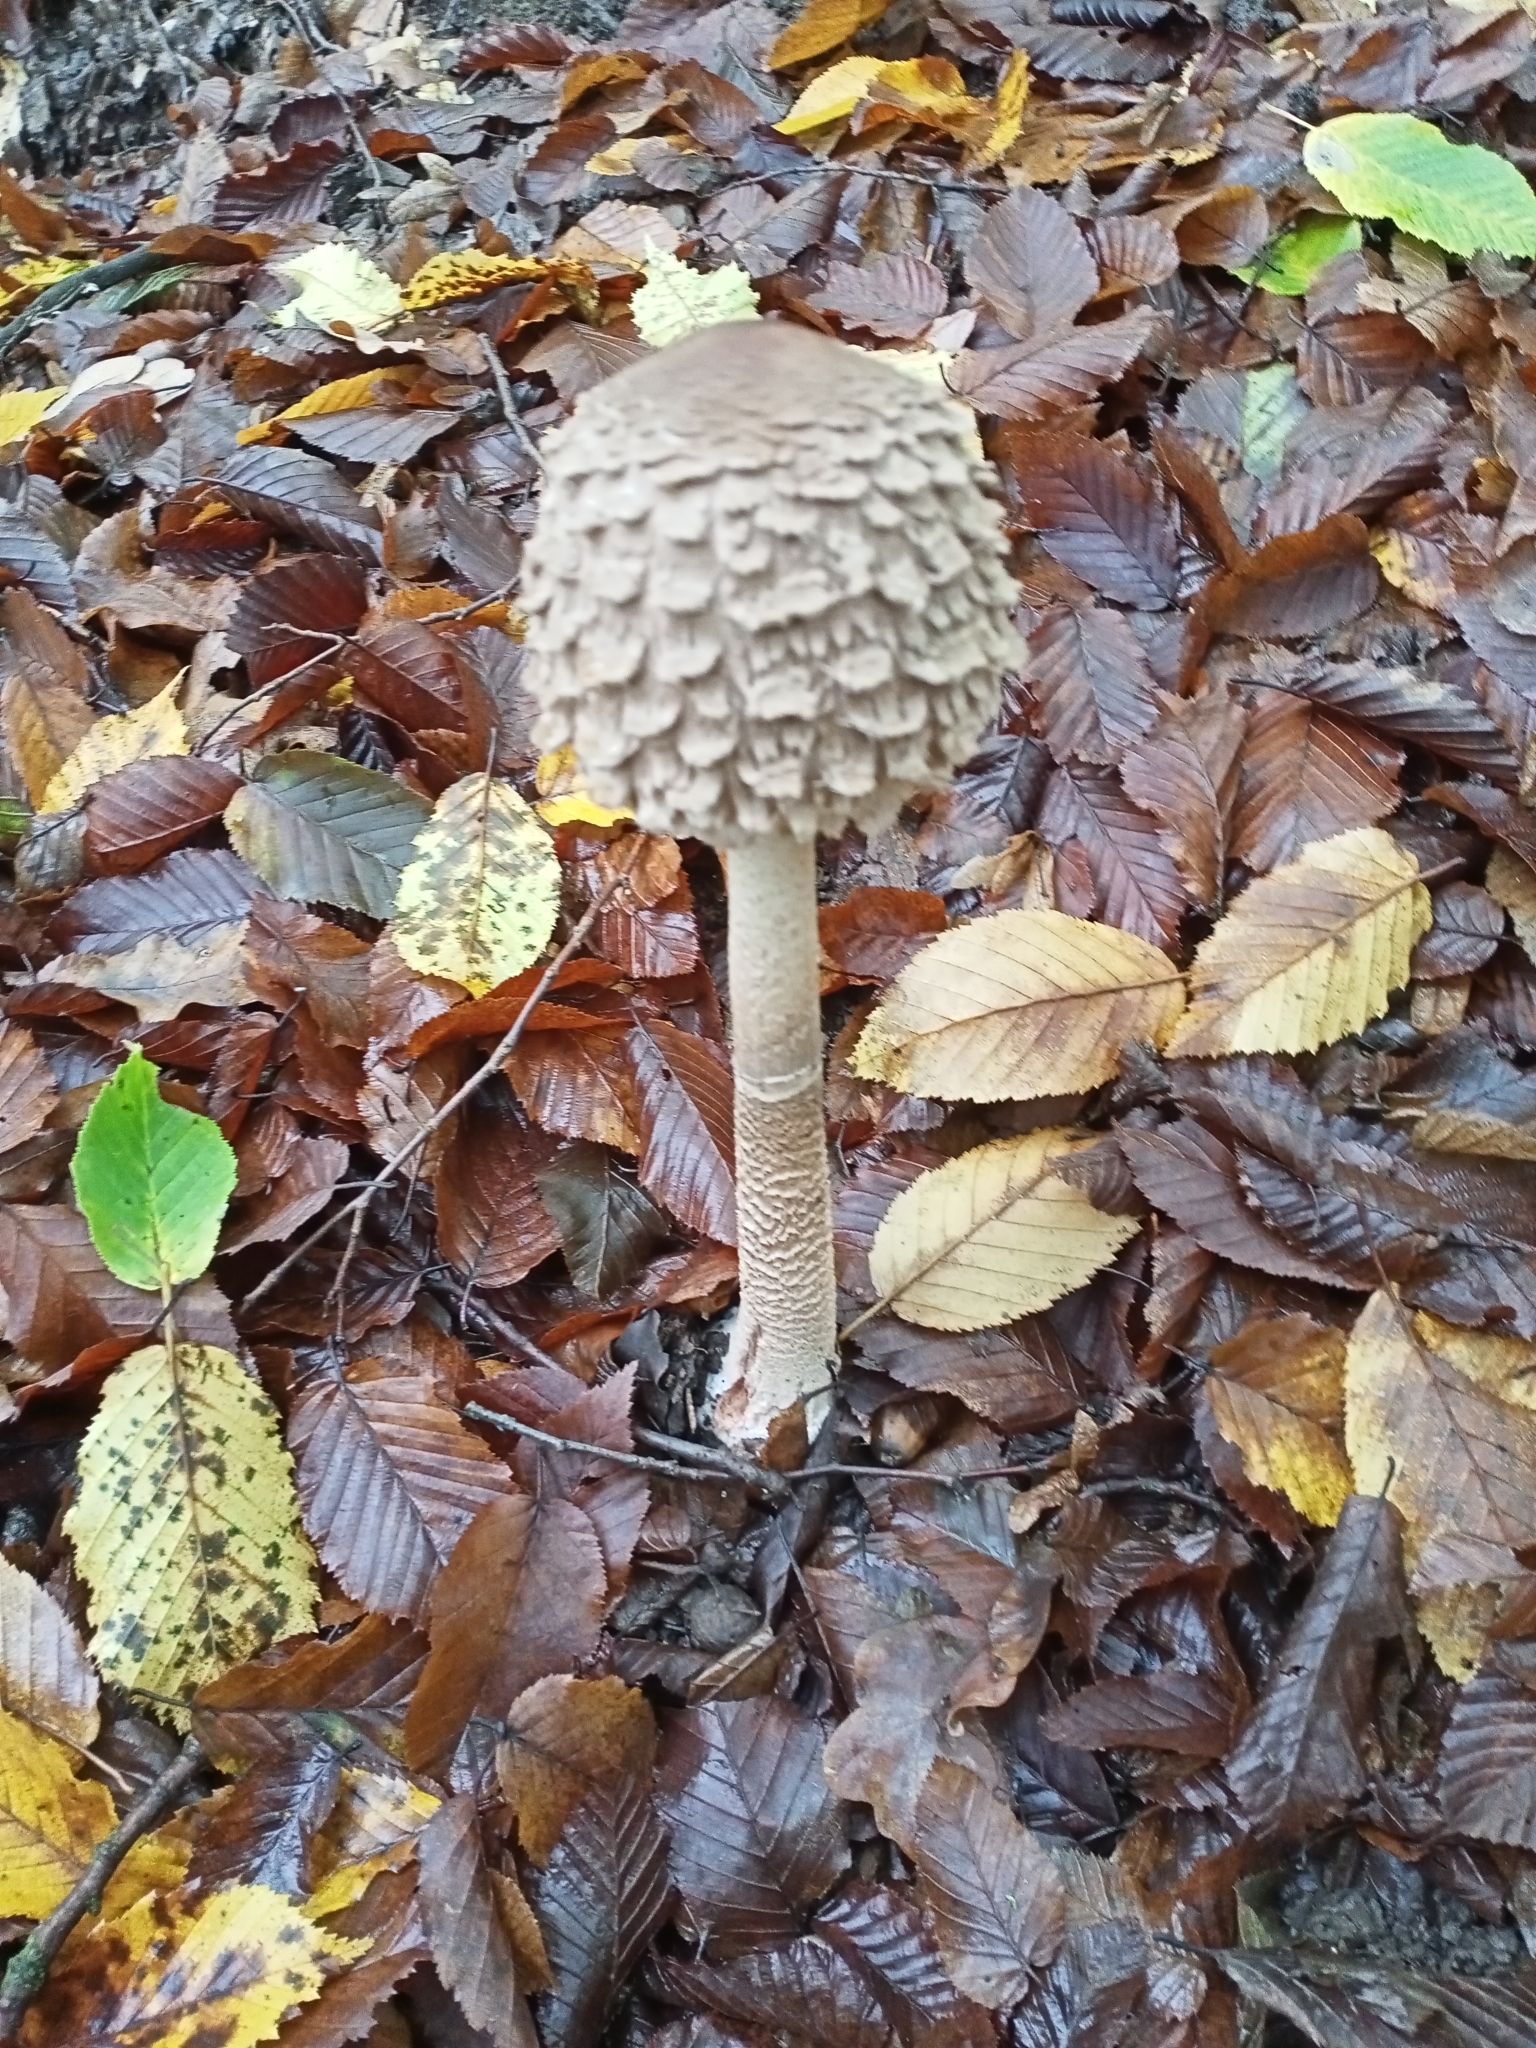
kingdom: Fungi
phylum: Basidiomycota
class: Agaricomycetes
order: Agaricales
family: Agaricaceae
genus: Macrolepiota
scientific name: Macrolepiota procera
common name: Parasol
